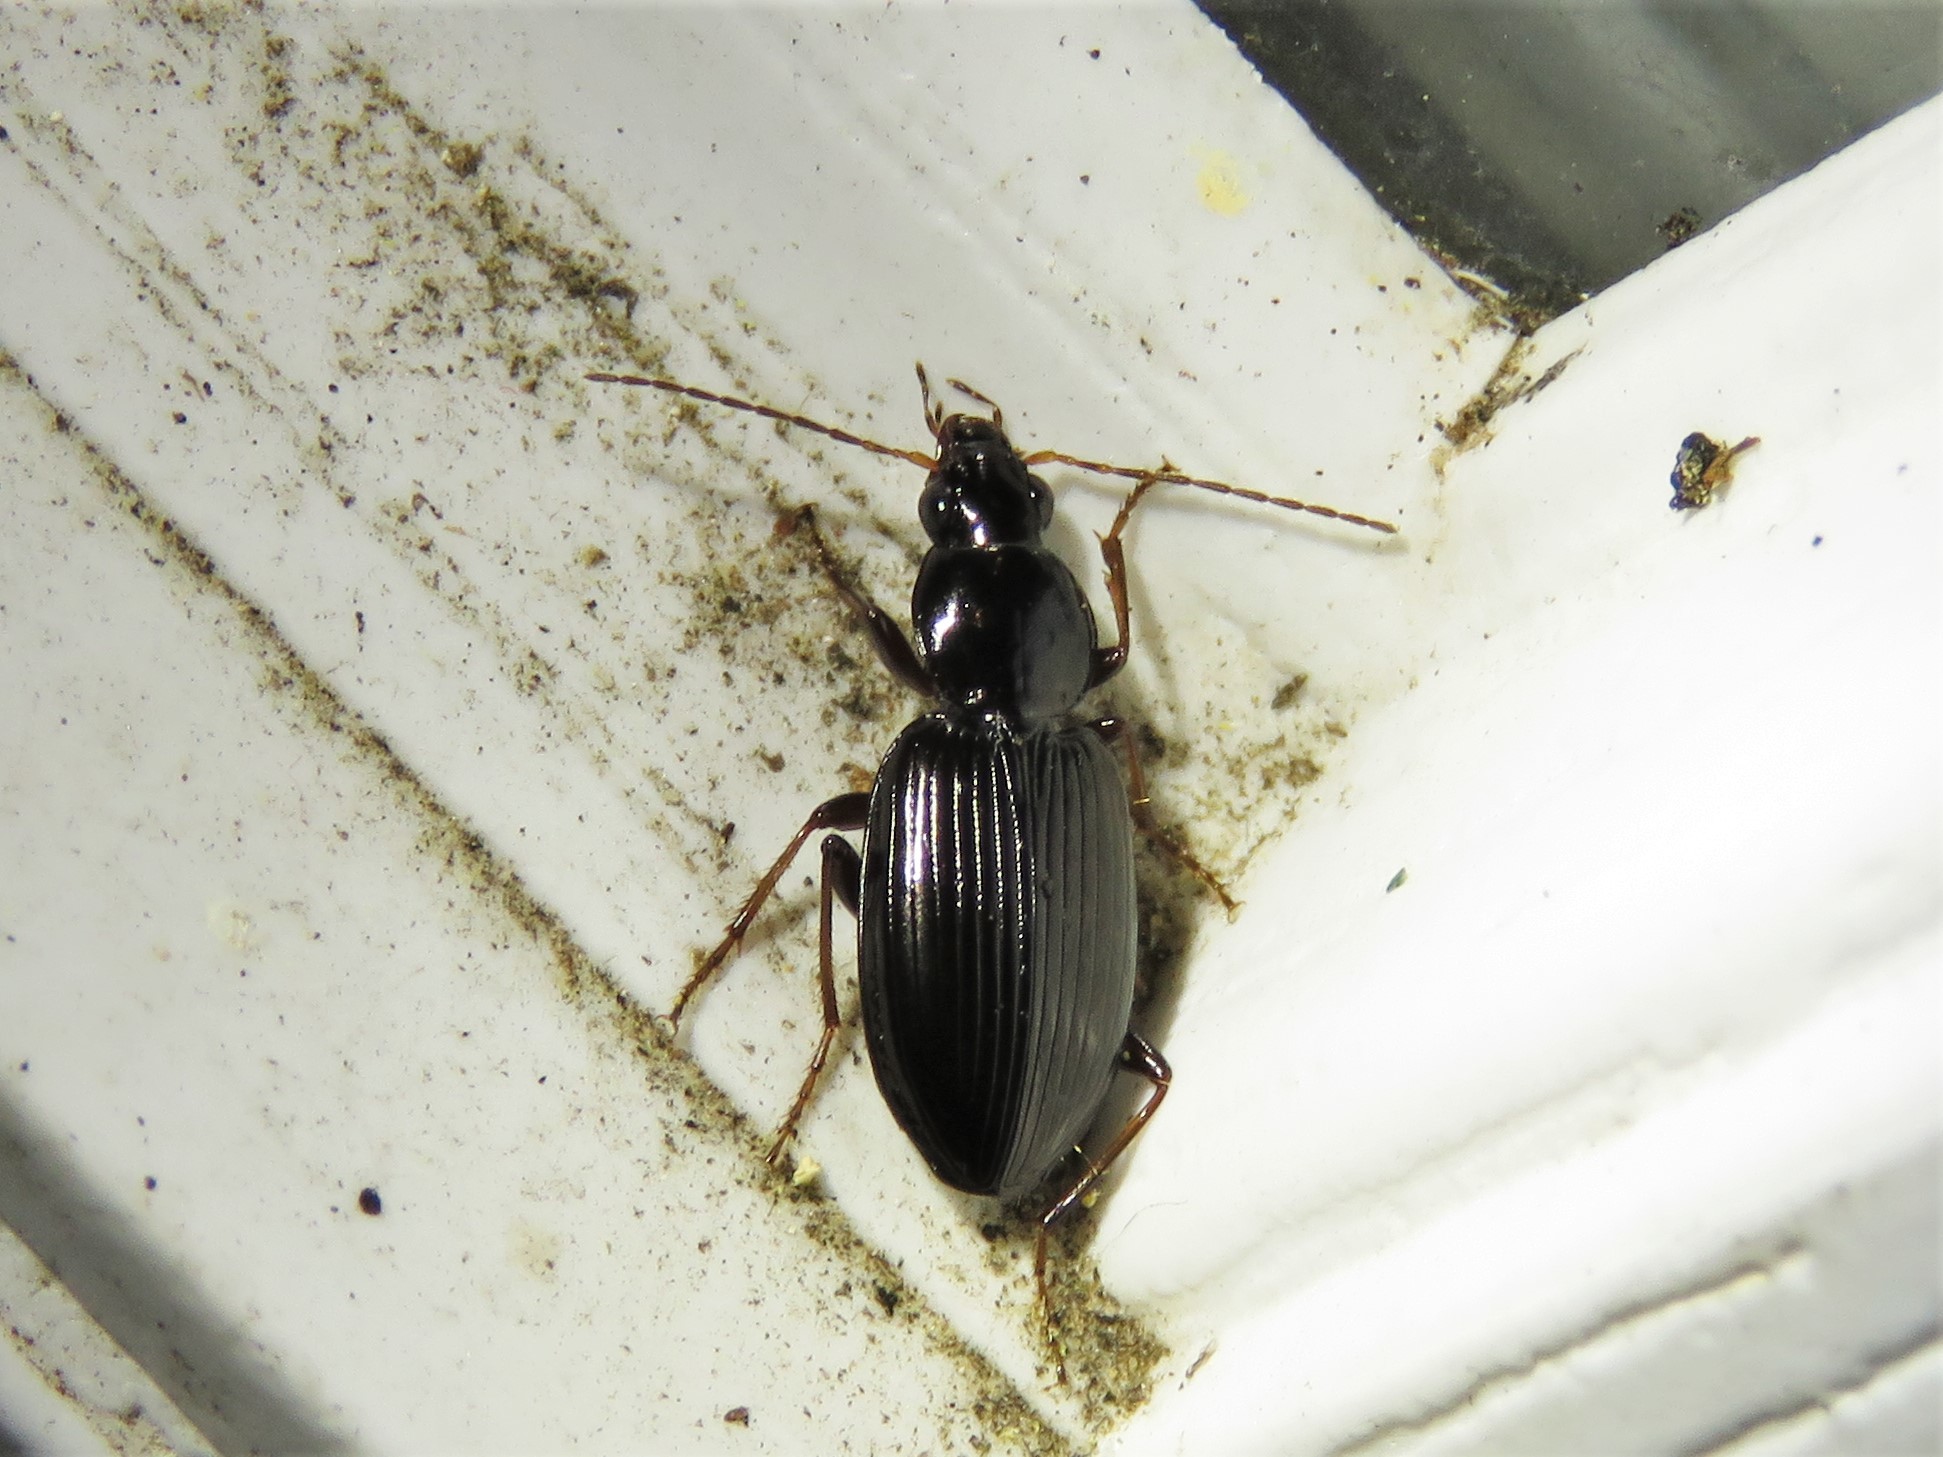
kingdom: Animalia
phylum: Arthropoda
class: Insecta
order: Coleoptera
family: Carabidae
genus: Agonum
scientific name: Agonum punctiforme
